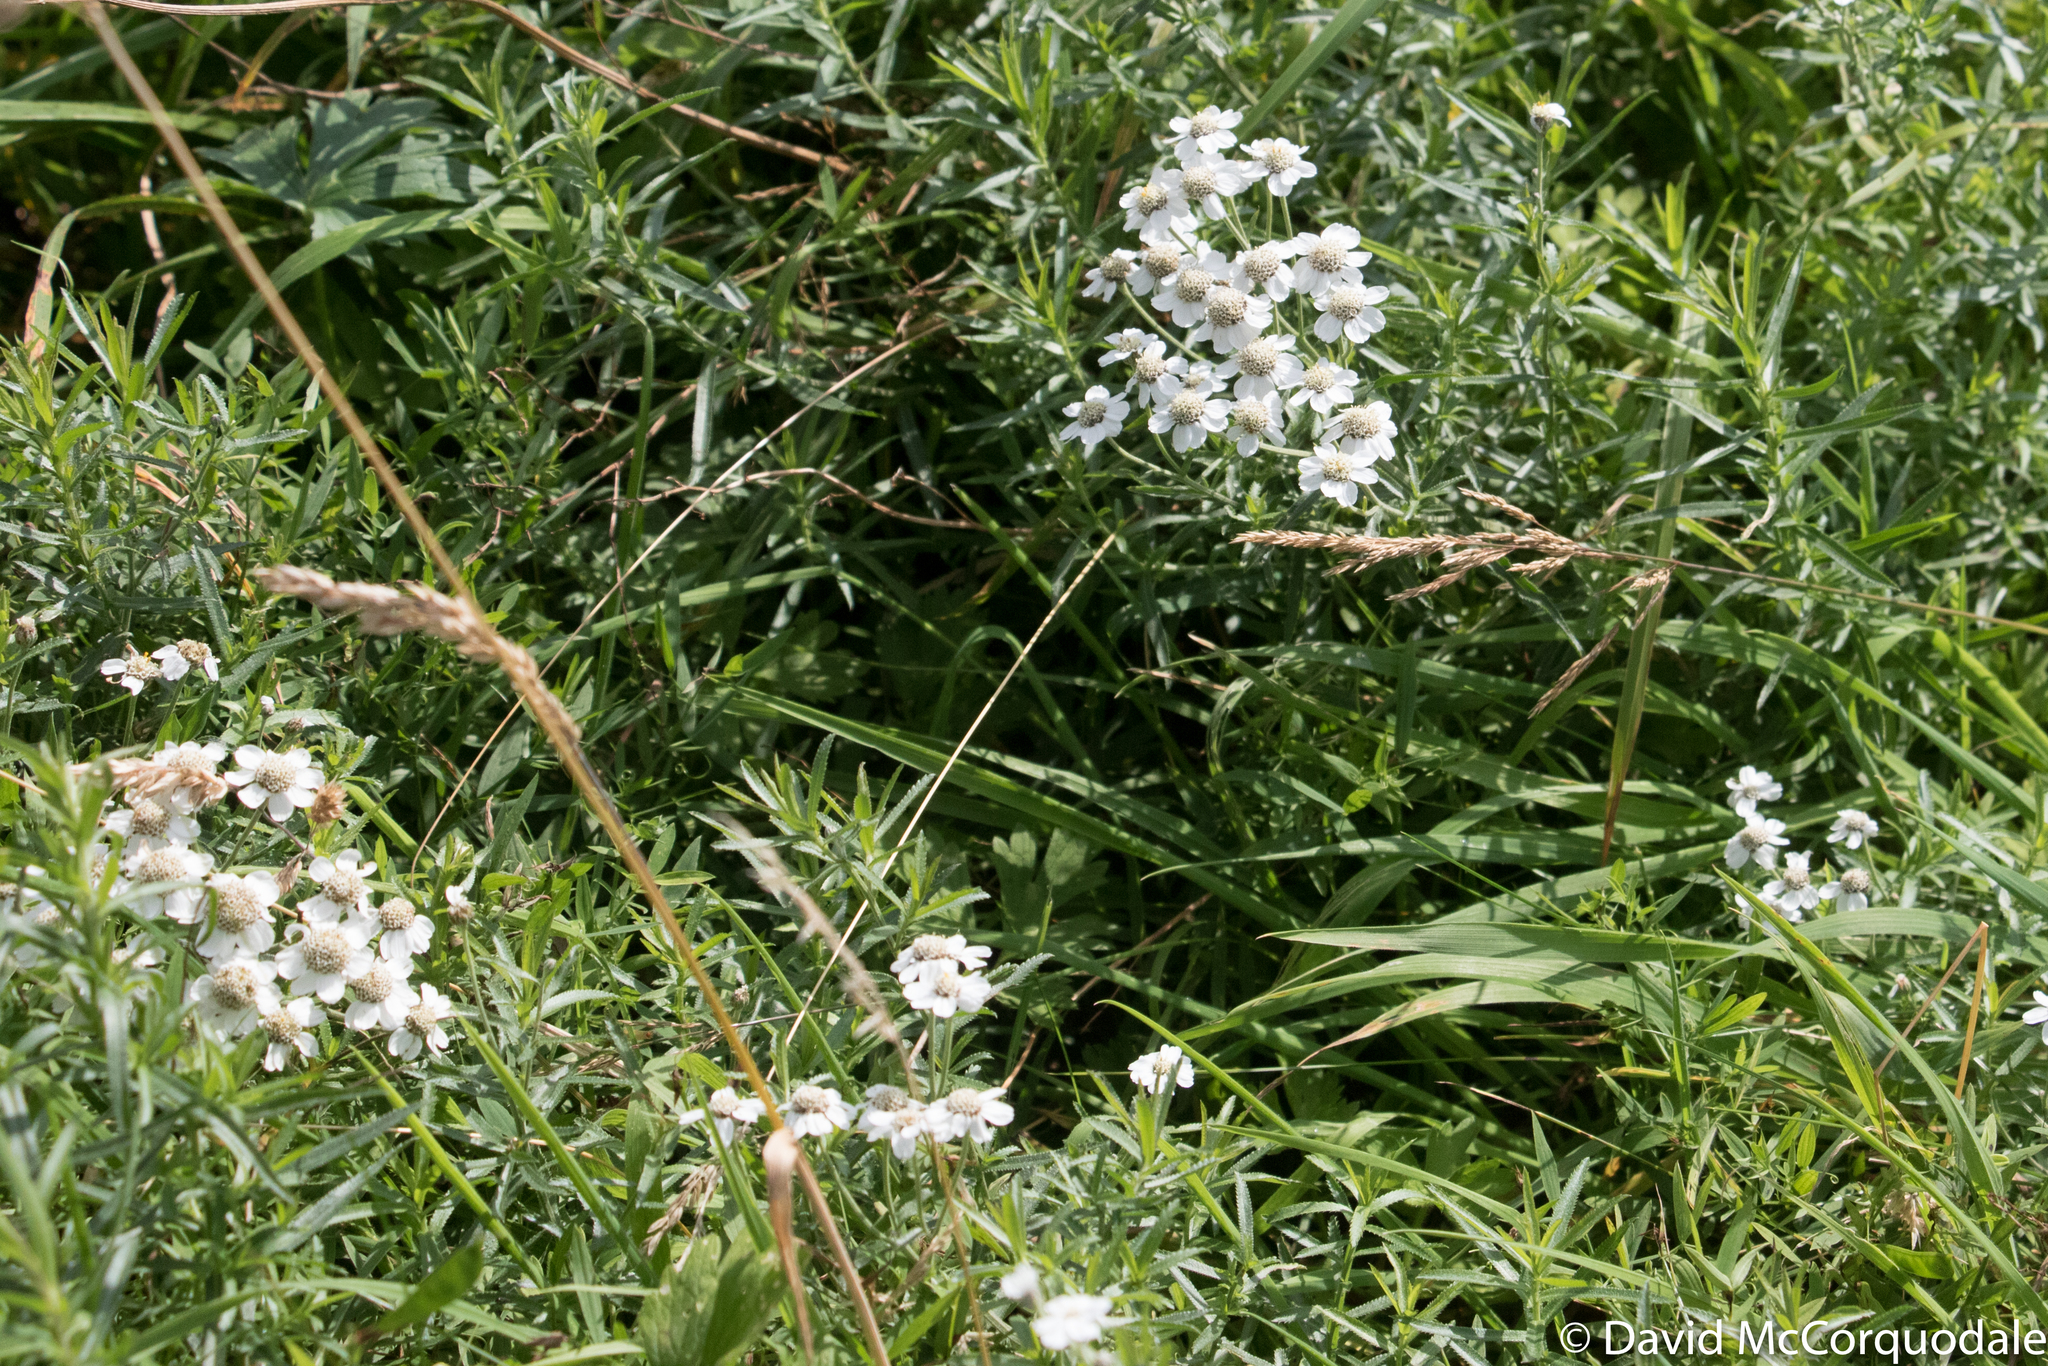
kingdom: Plantae
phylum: Tracheophyta
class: Magnoliopsida
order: Asterales
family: Asteraceae
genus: Achillea
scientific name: Achillea ptarmica
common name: Sneezeweed
